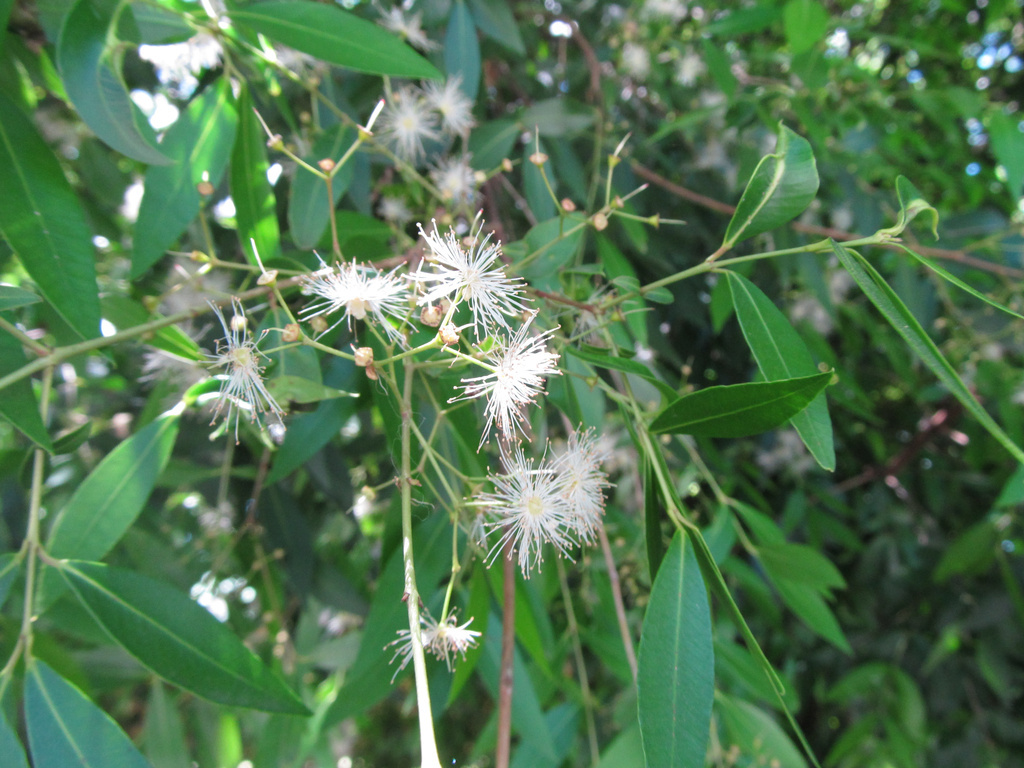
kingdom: Plantae
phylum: Tracheophyta
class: Magnoliopsida
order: Myrtales
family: Myrtaceae
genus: Blepharocalyx
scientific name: Blepharocalyx salicifolius
